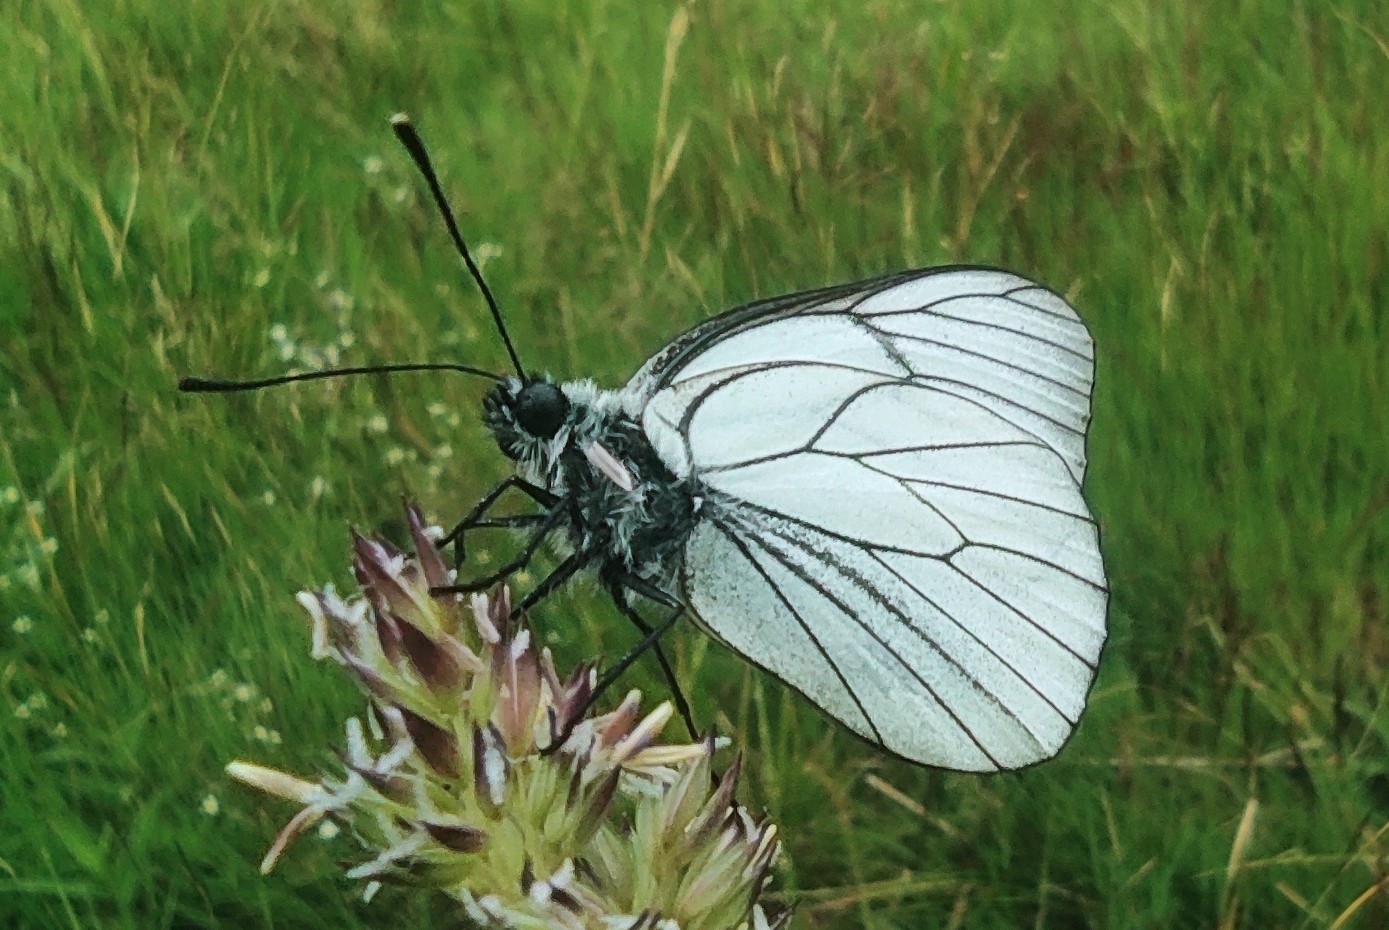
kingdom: Animalia
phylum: Arthropoda
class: Insecta
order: Lepidoptera
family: Pieridae
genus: Aporia
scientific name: Aporia crataegi
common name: Black-veined white
